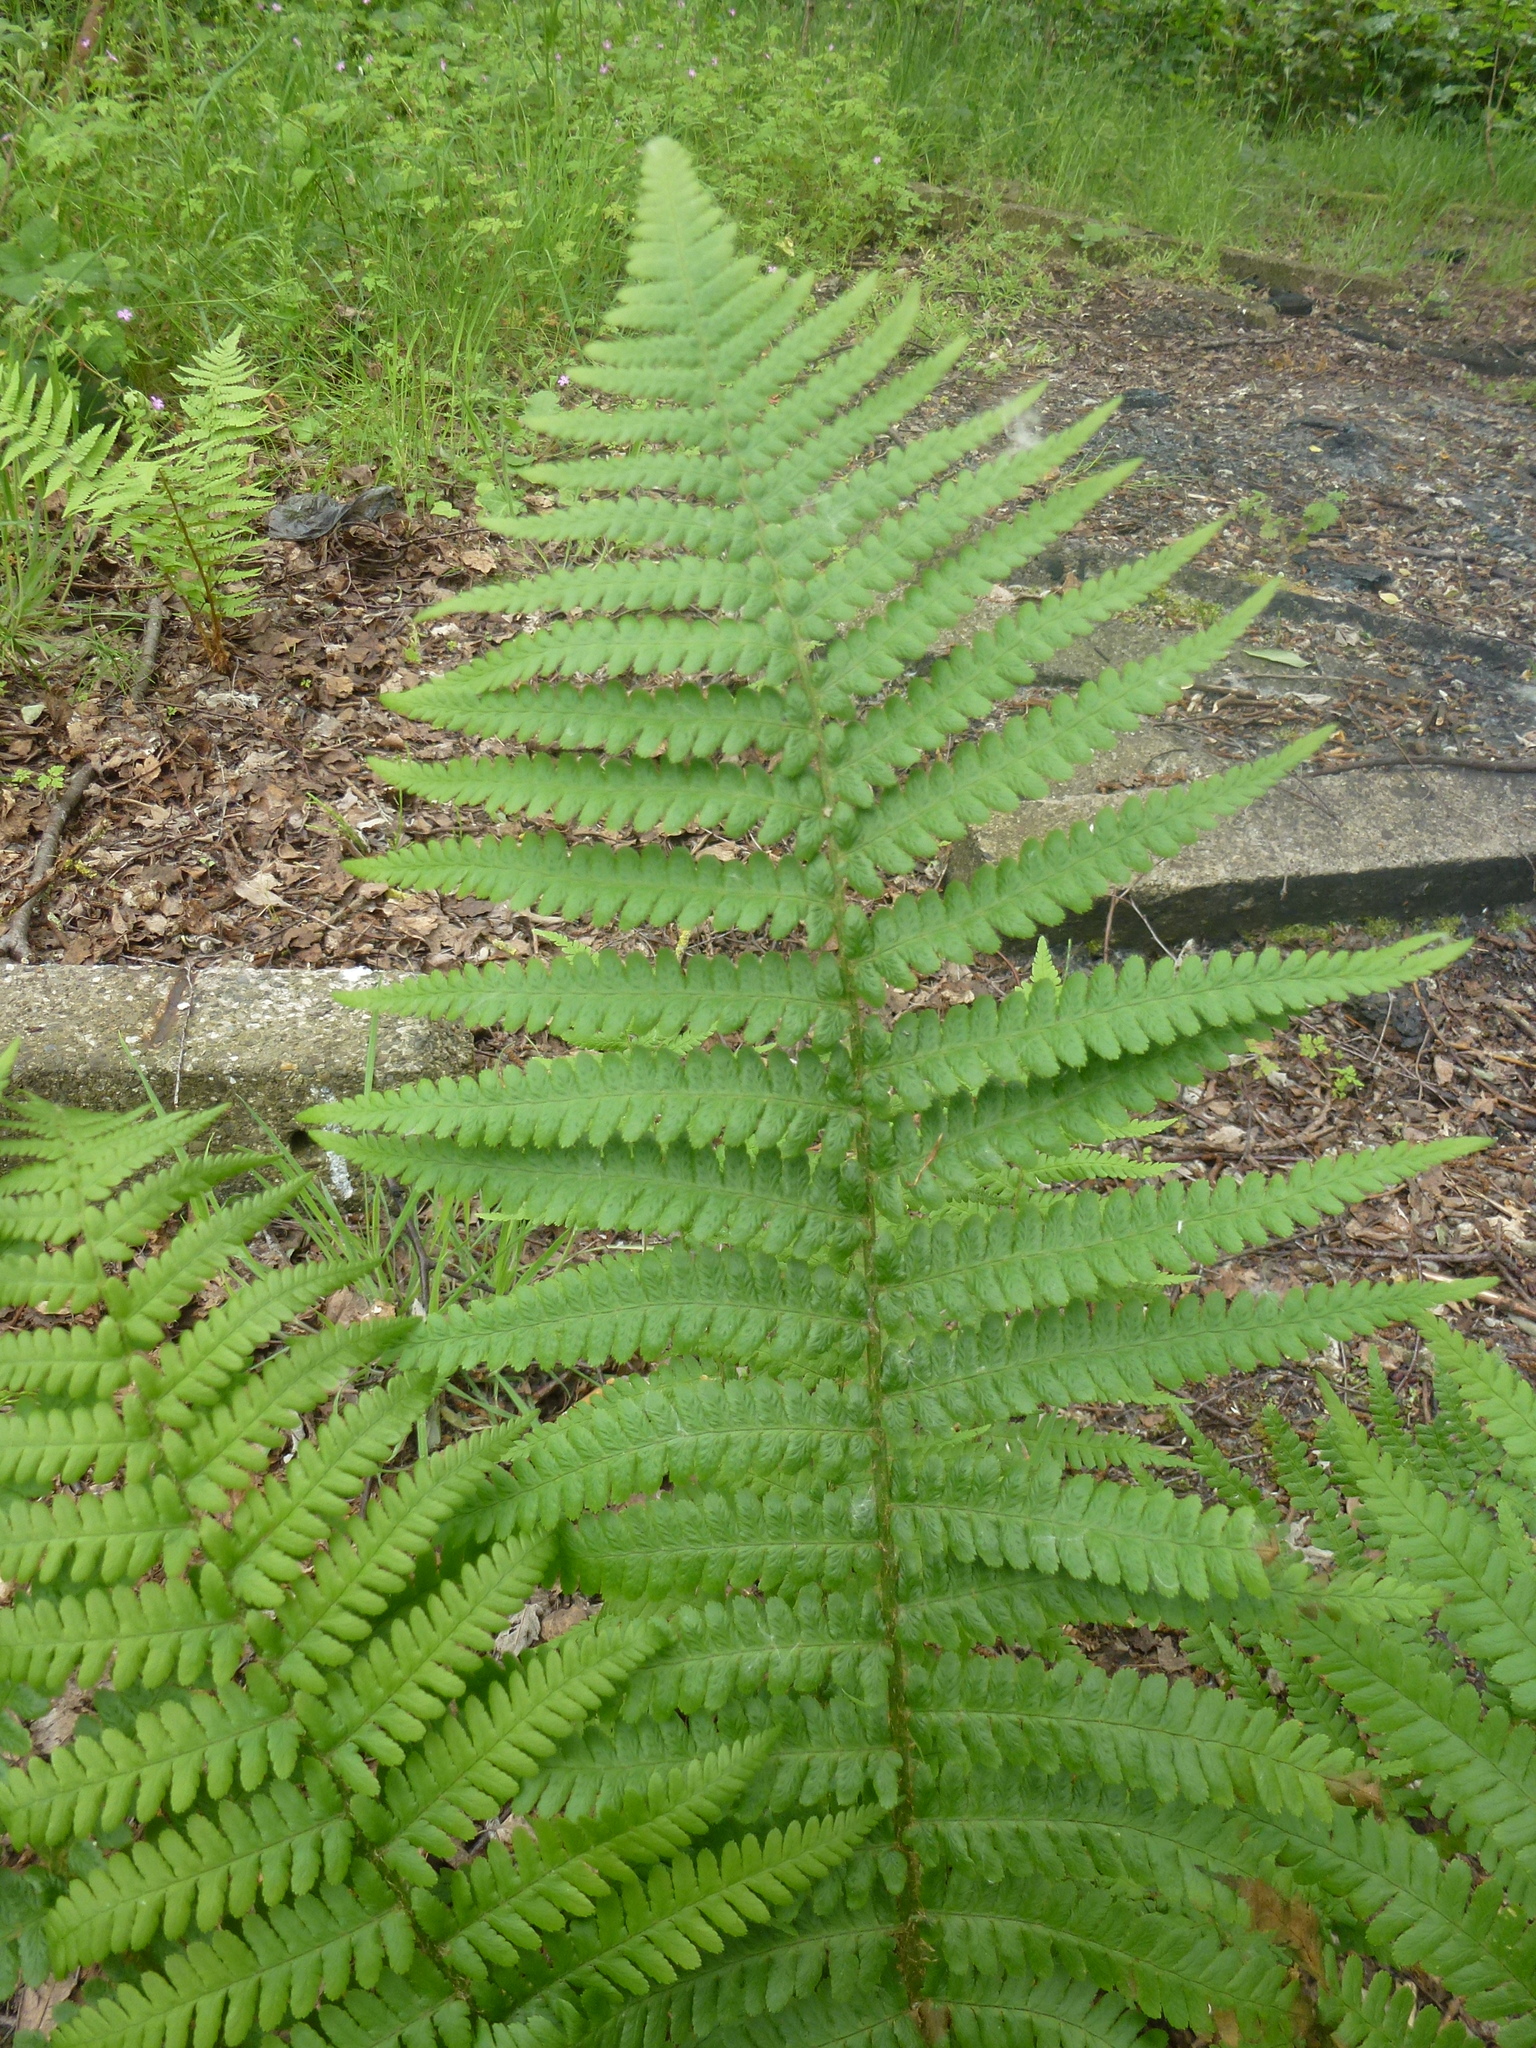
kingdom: Plantae
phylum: Tracheophyta
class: Polypodiopsida
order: Polypodiales
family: Dryopteridaceae
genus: Dryopteris
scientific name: Dryopteris filix-mas
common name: Male fern
